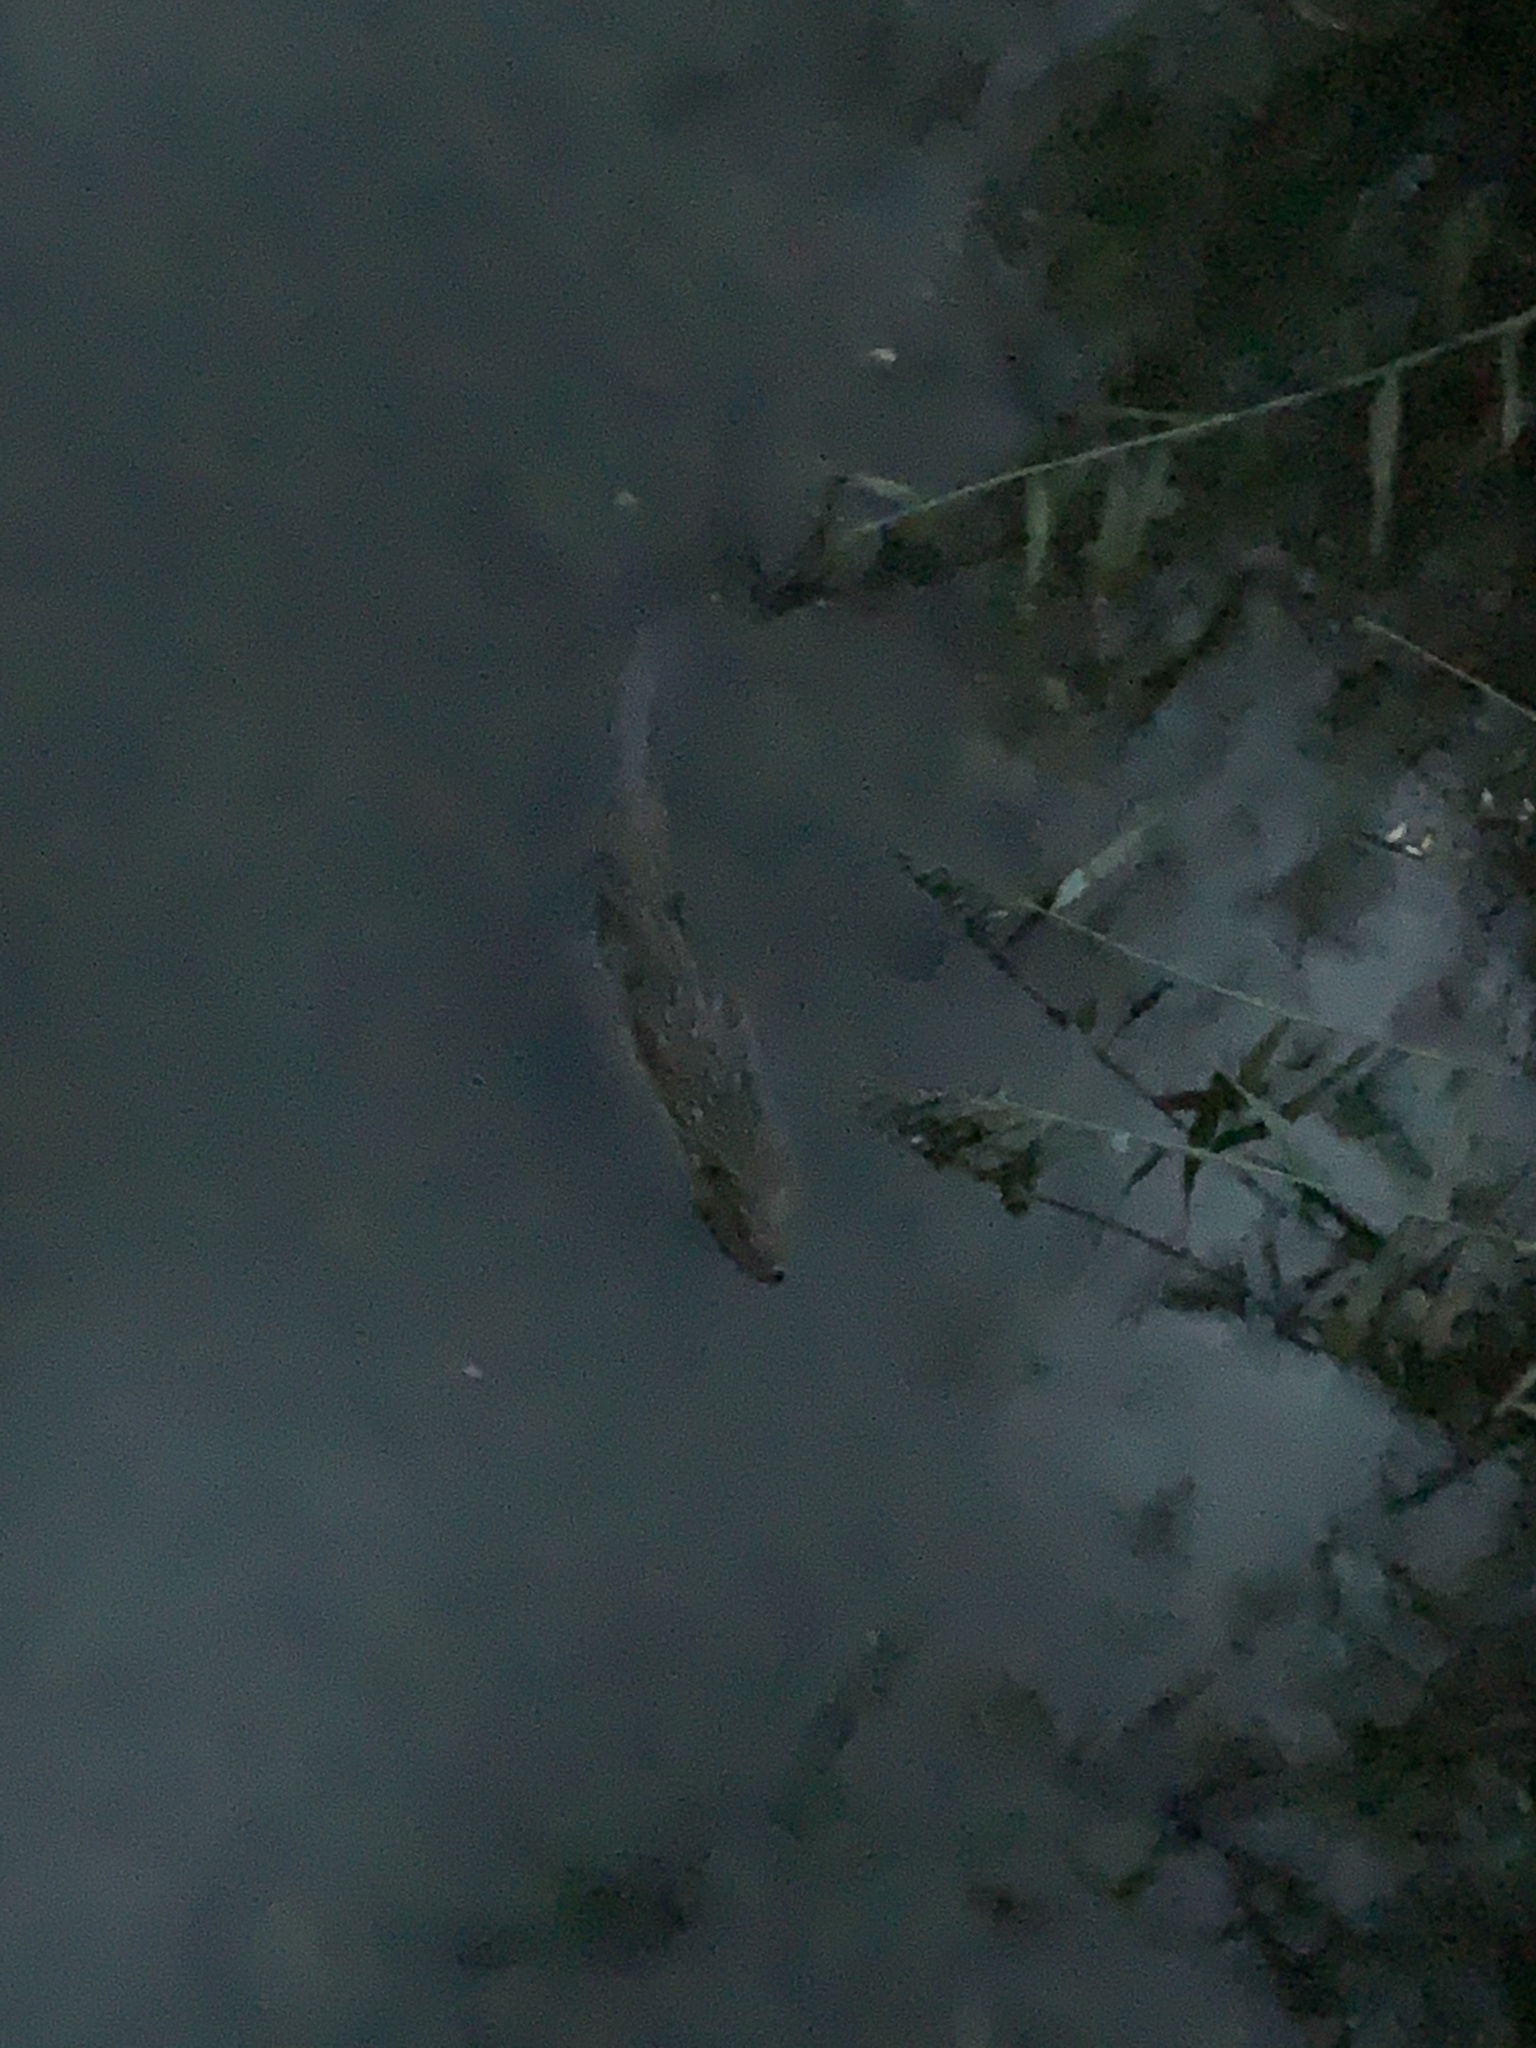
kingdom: Animalia
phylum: Chordata
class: Mammalia
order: Rodentia
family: Castoridae
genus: Castor
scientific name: Castor fiber
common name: Eurasian beaver
